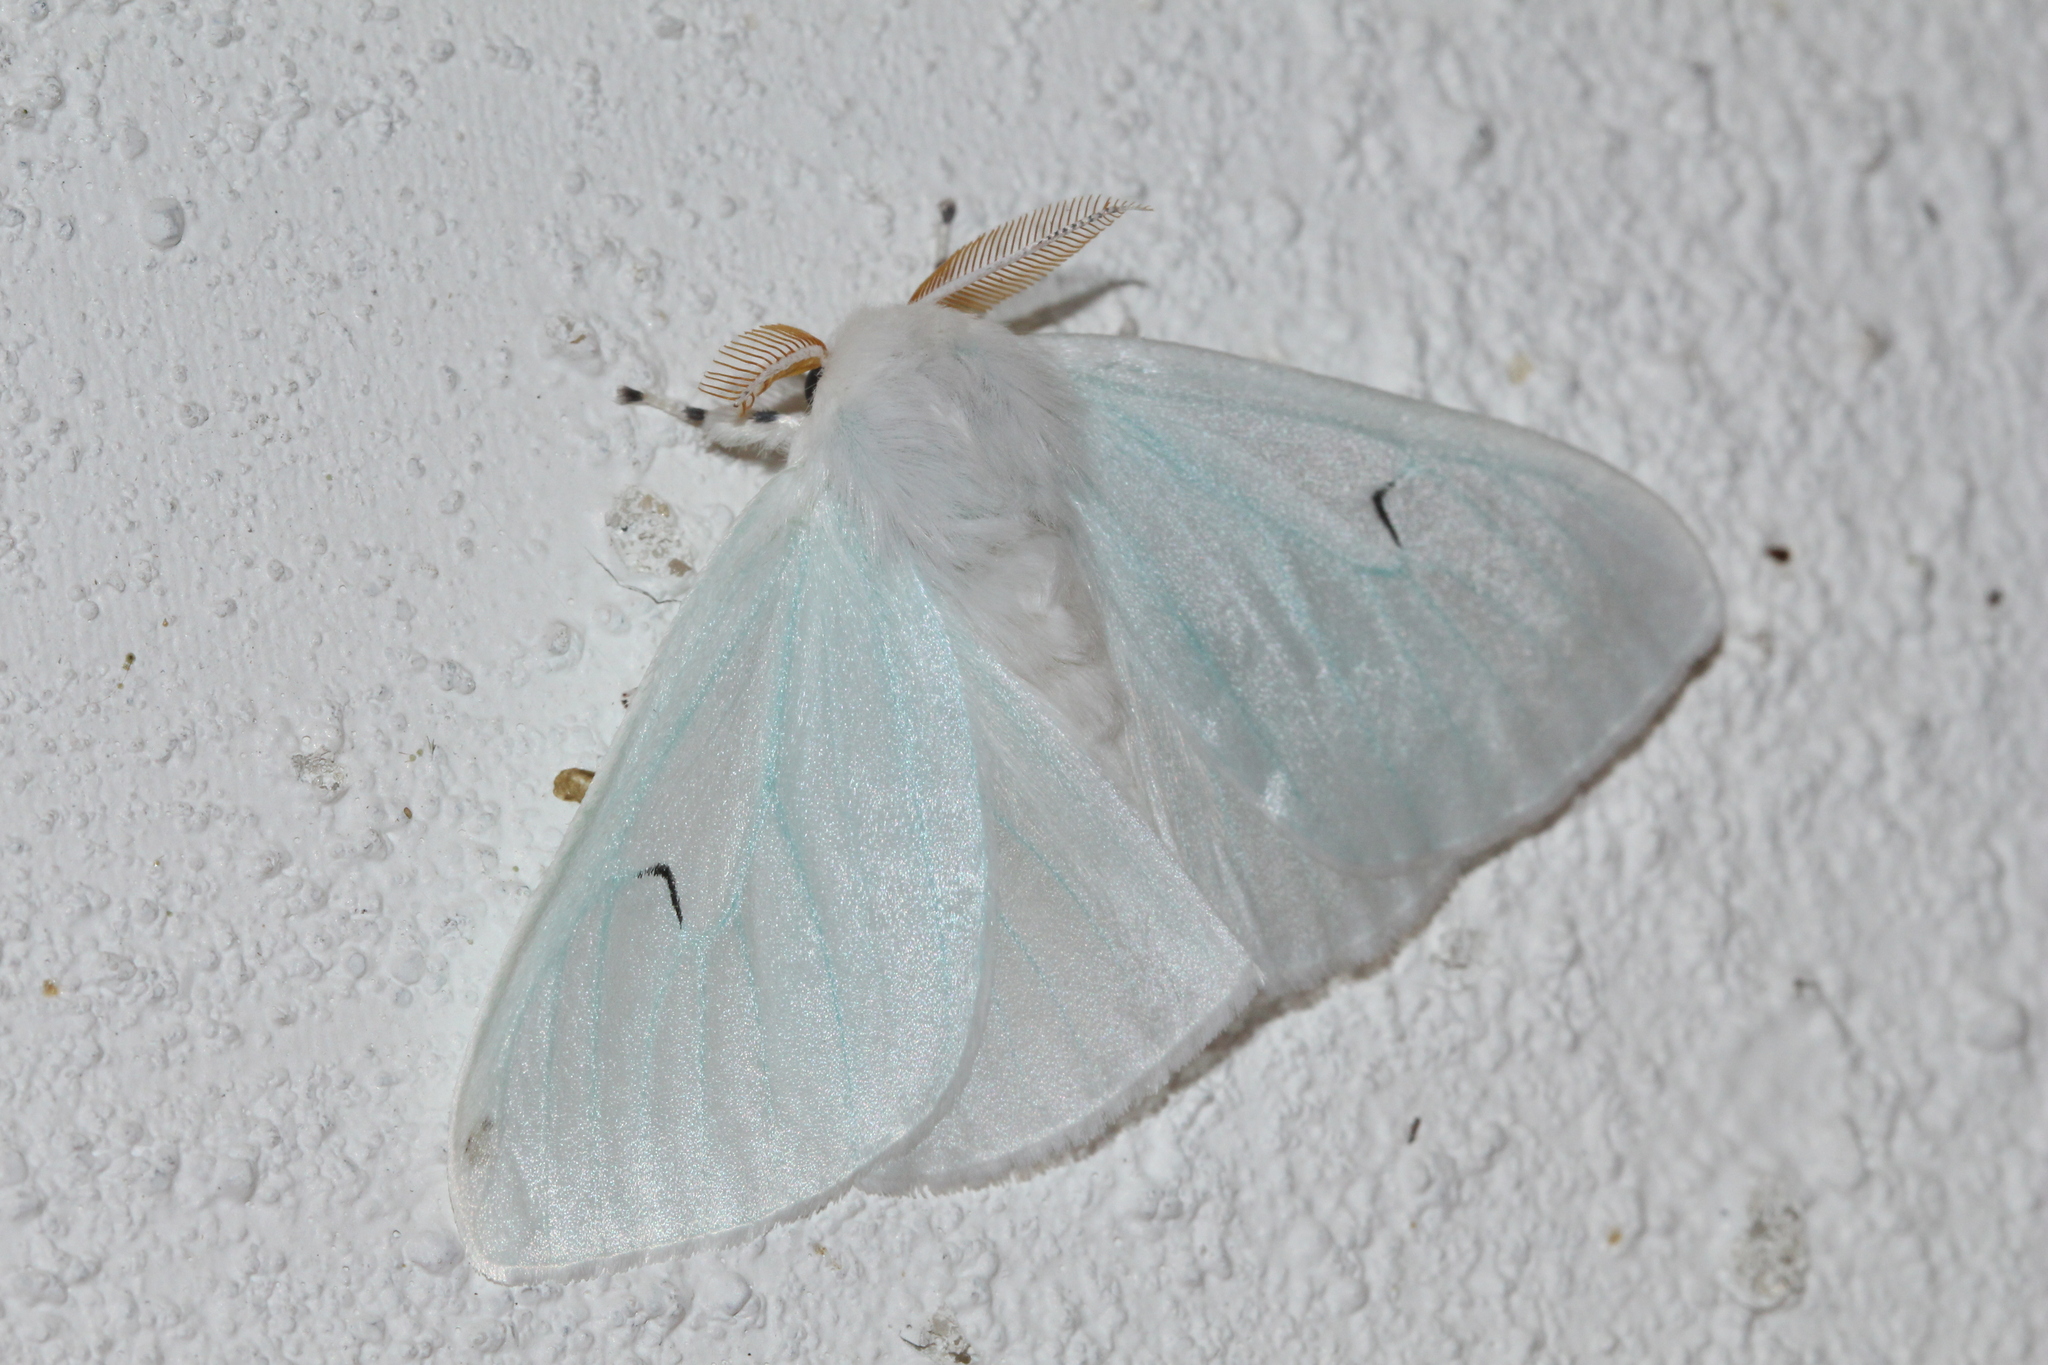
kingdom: Animalia
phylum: Arthropoda
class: Insecta
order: Lepidoptera
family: Erebidae
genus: Arctornis
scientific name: Arctornis l-nigrum
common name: Black v moth
